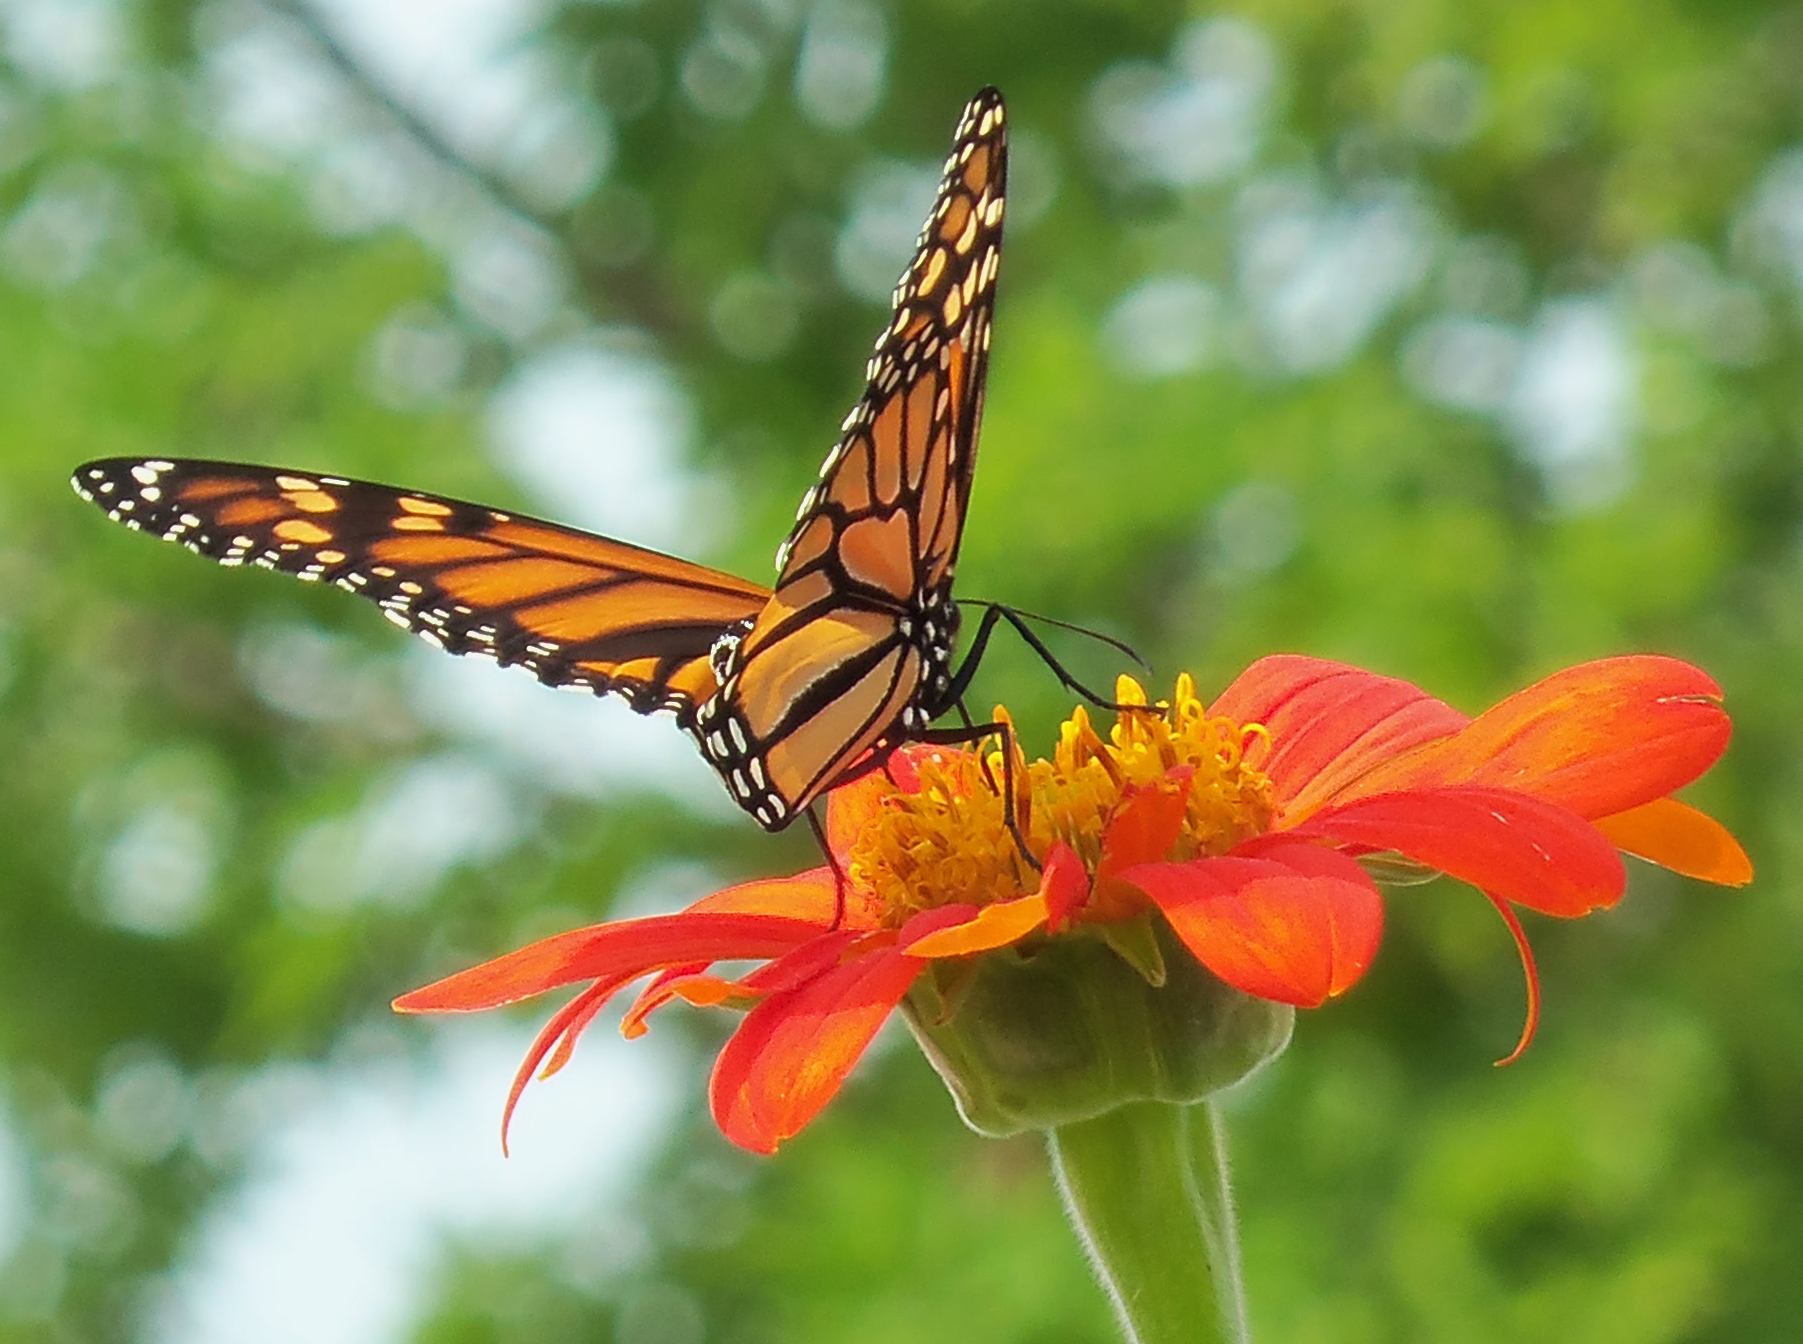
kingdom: Animalia
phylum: Arthropoda
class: Insecta
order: Lepidoptera
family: Nymphalidae
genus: Danaus
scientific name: Danaus plexippus
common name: Monarch
